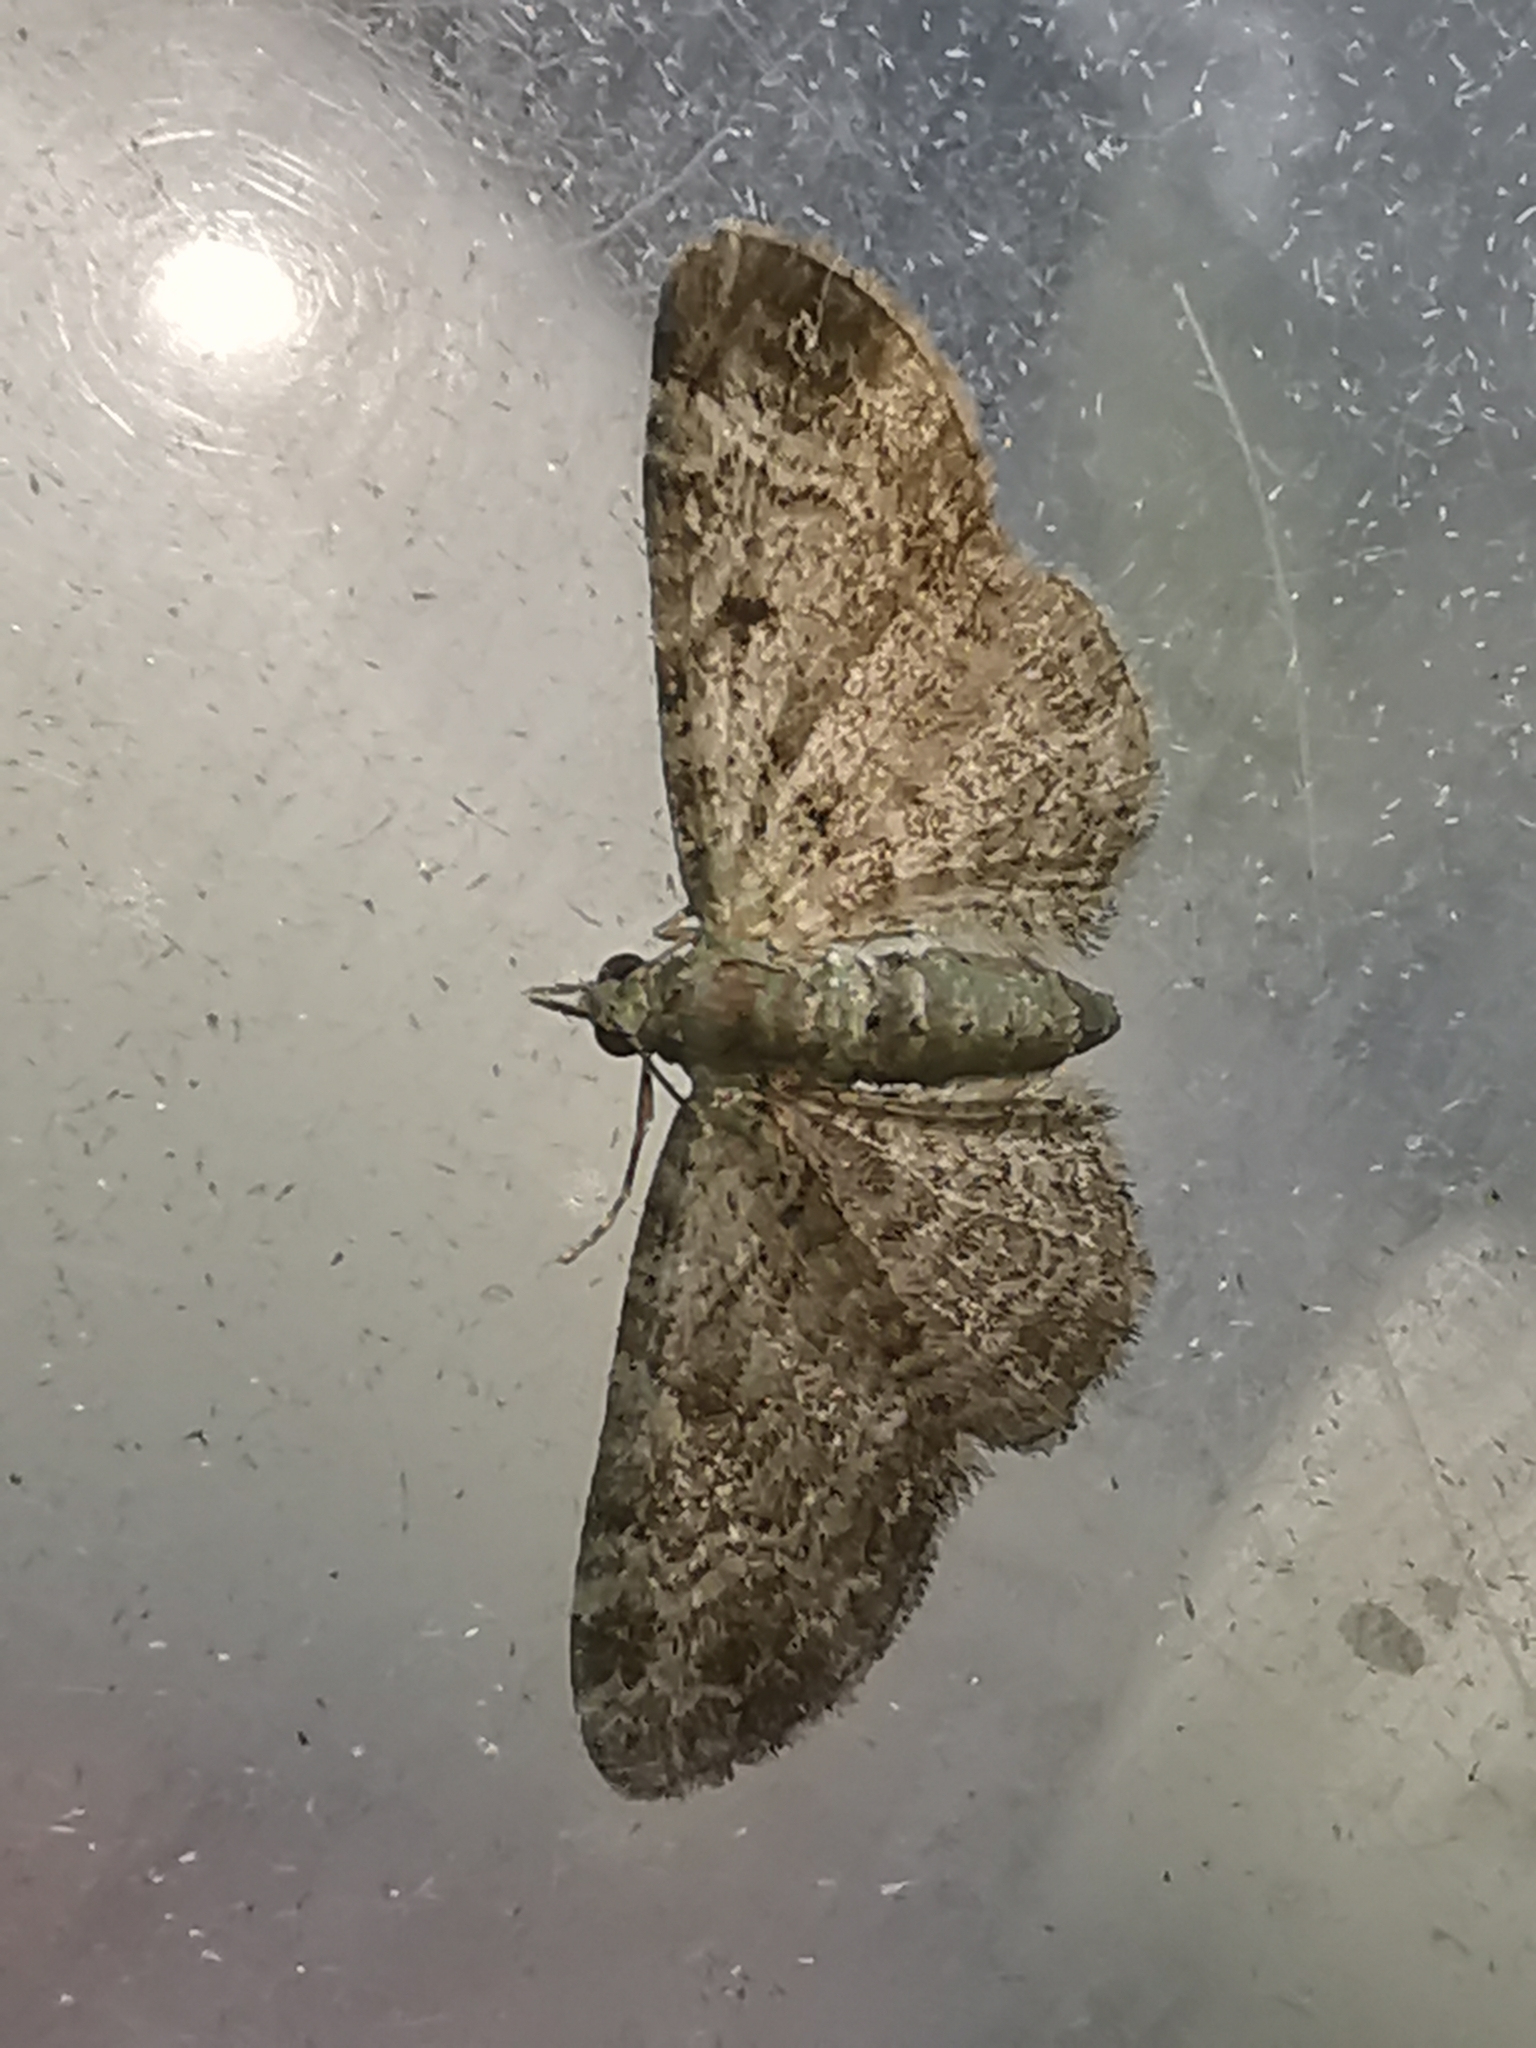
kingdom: Animalia
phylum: Arthropoda
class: Insecta
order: Lepidoptera
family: Geometridae
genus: Pasiphila
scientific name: Pasiphila rectangulata
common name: Green pug
